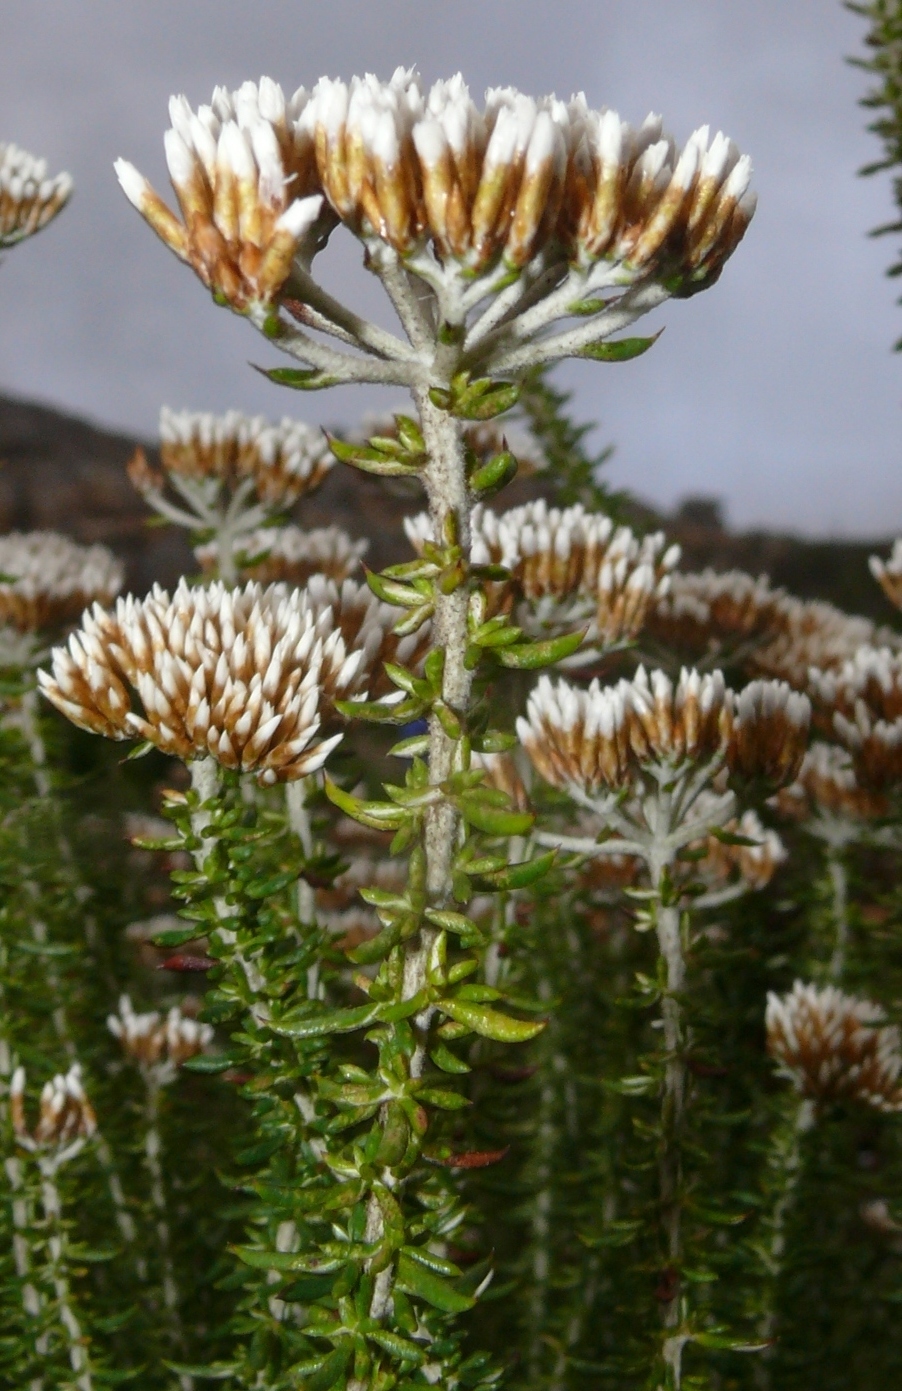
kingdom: Plantae
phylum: Tracheophyta
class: Magnoliopsida
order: Asterales
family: Asteraceae
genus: Metalasia
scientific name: Metalasia densa
